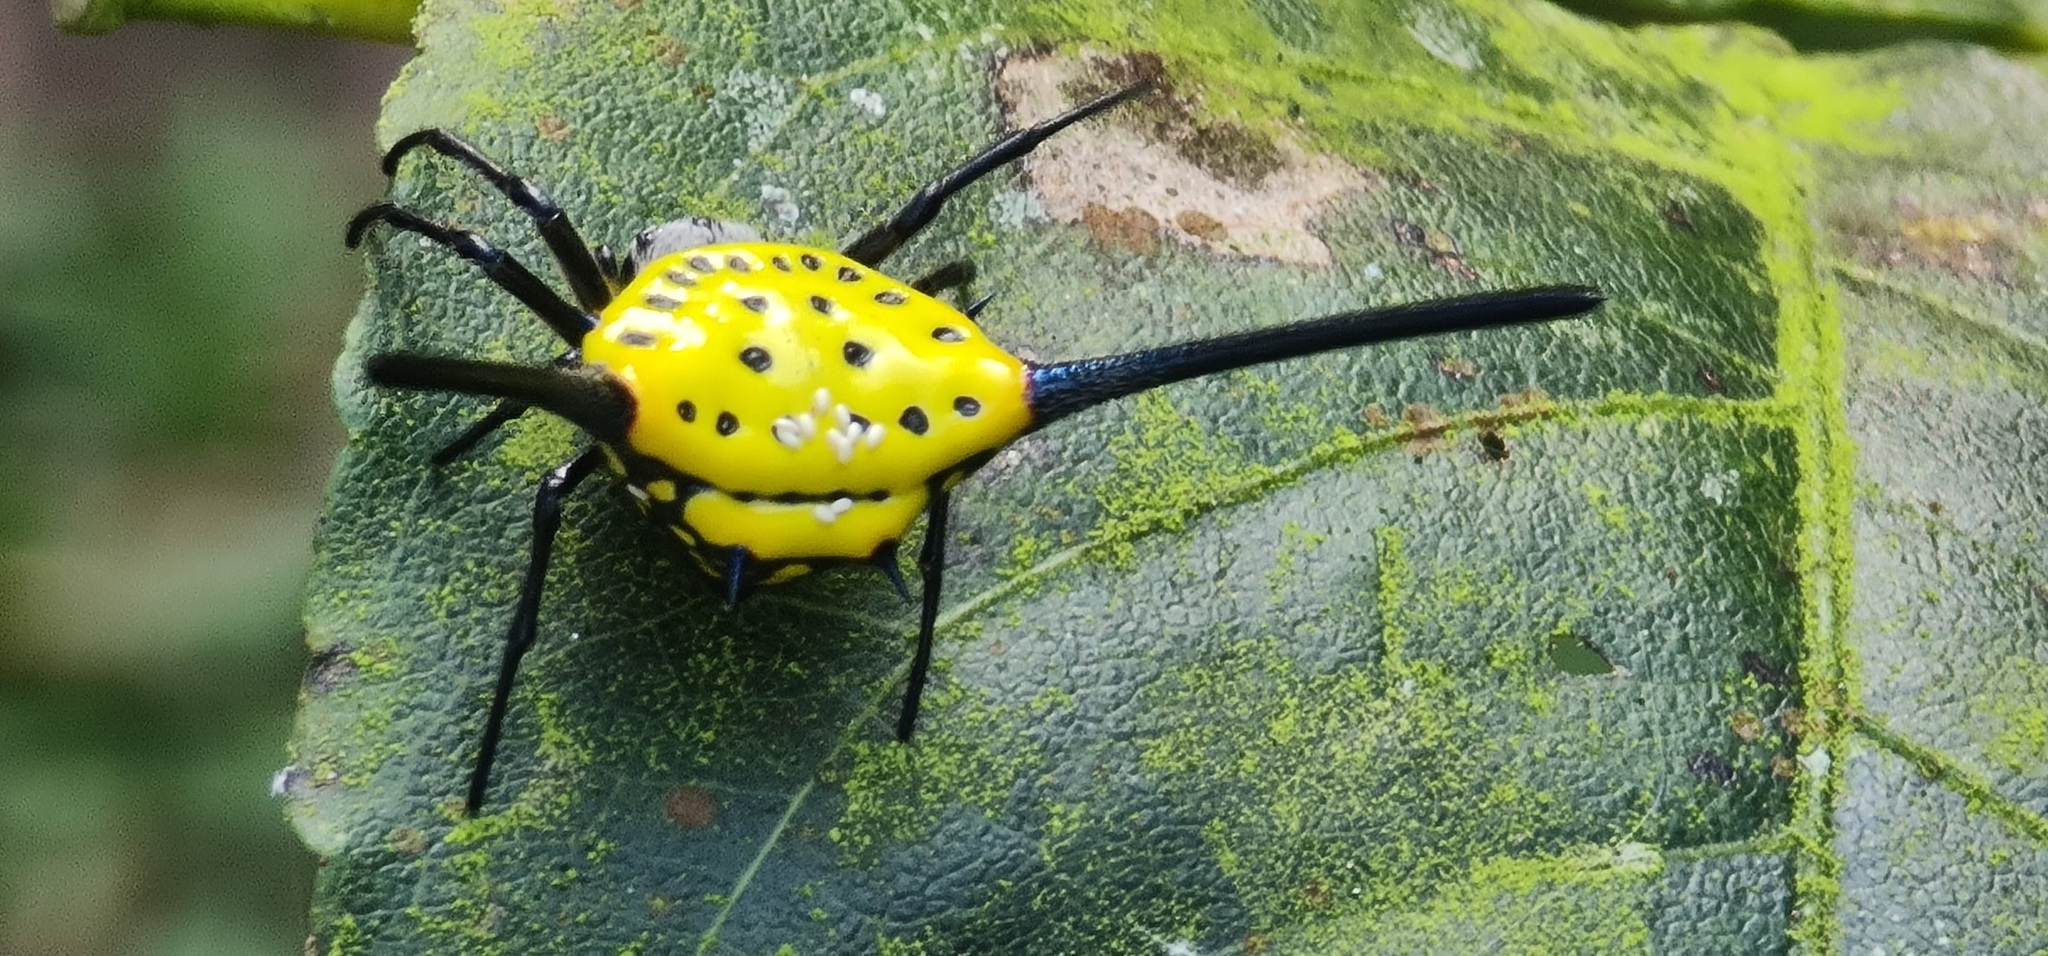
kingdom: Animalia
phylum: Arthropoda
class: Arachnida
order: Araneae
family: Araneidae
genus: Gasteracantha
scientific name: Gasteracantha dalyi
